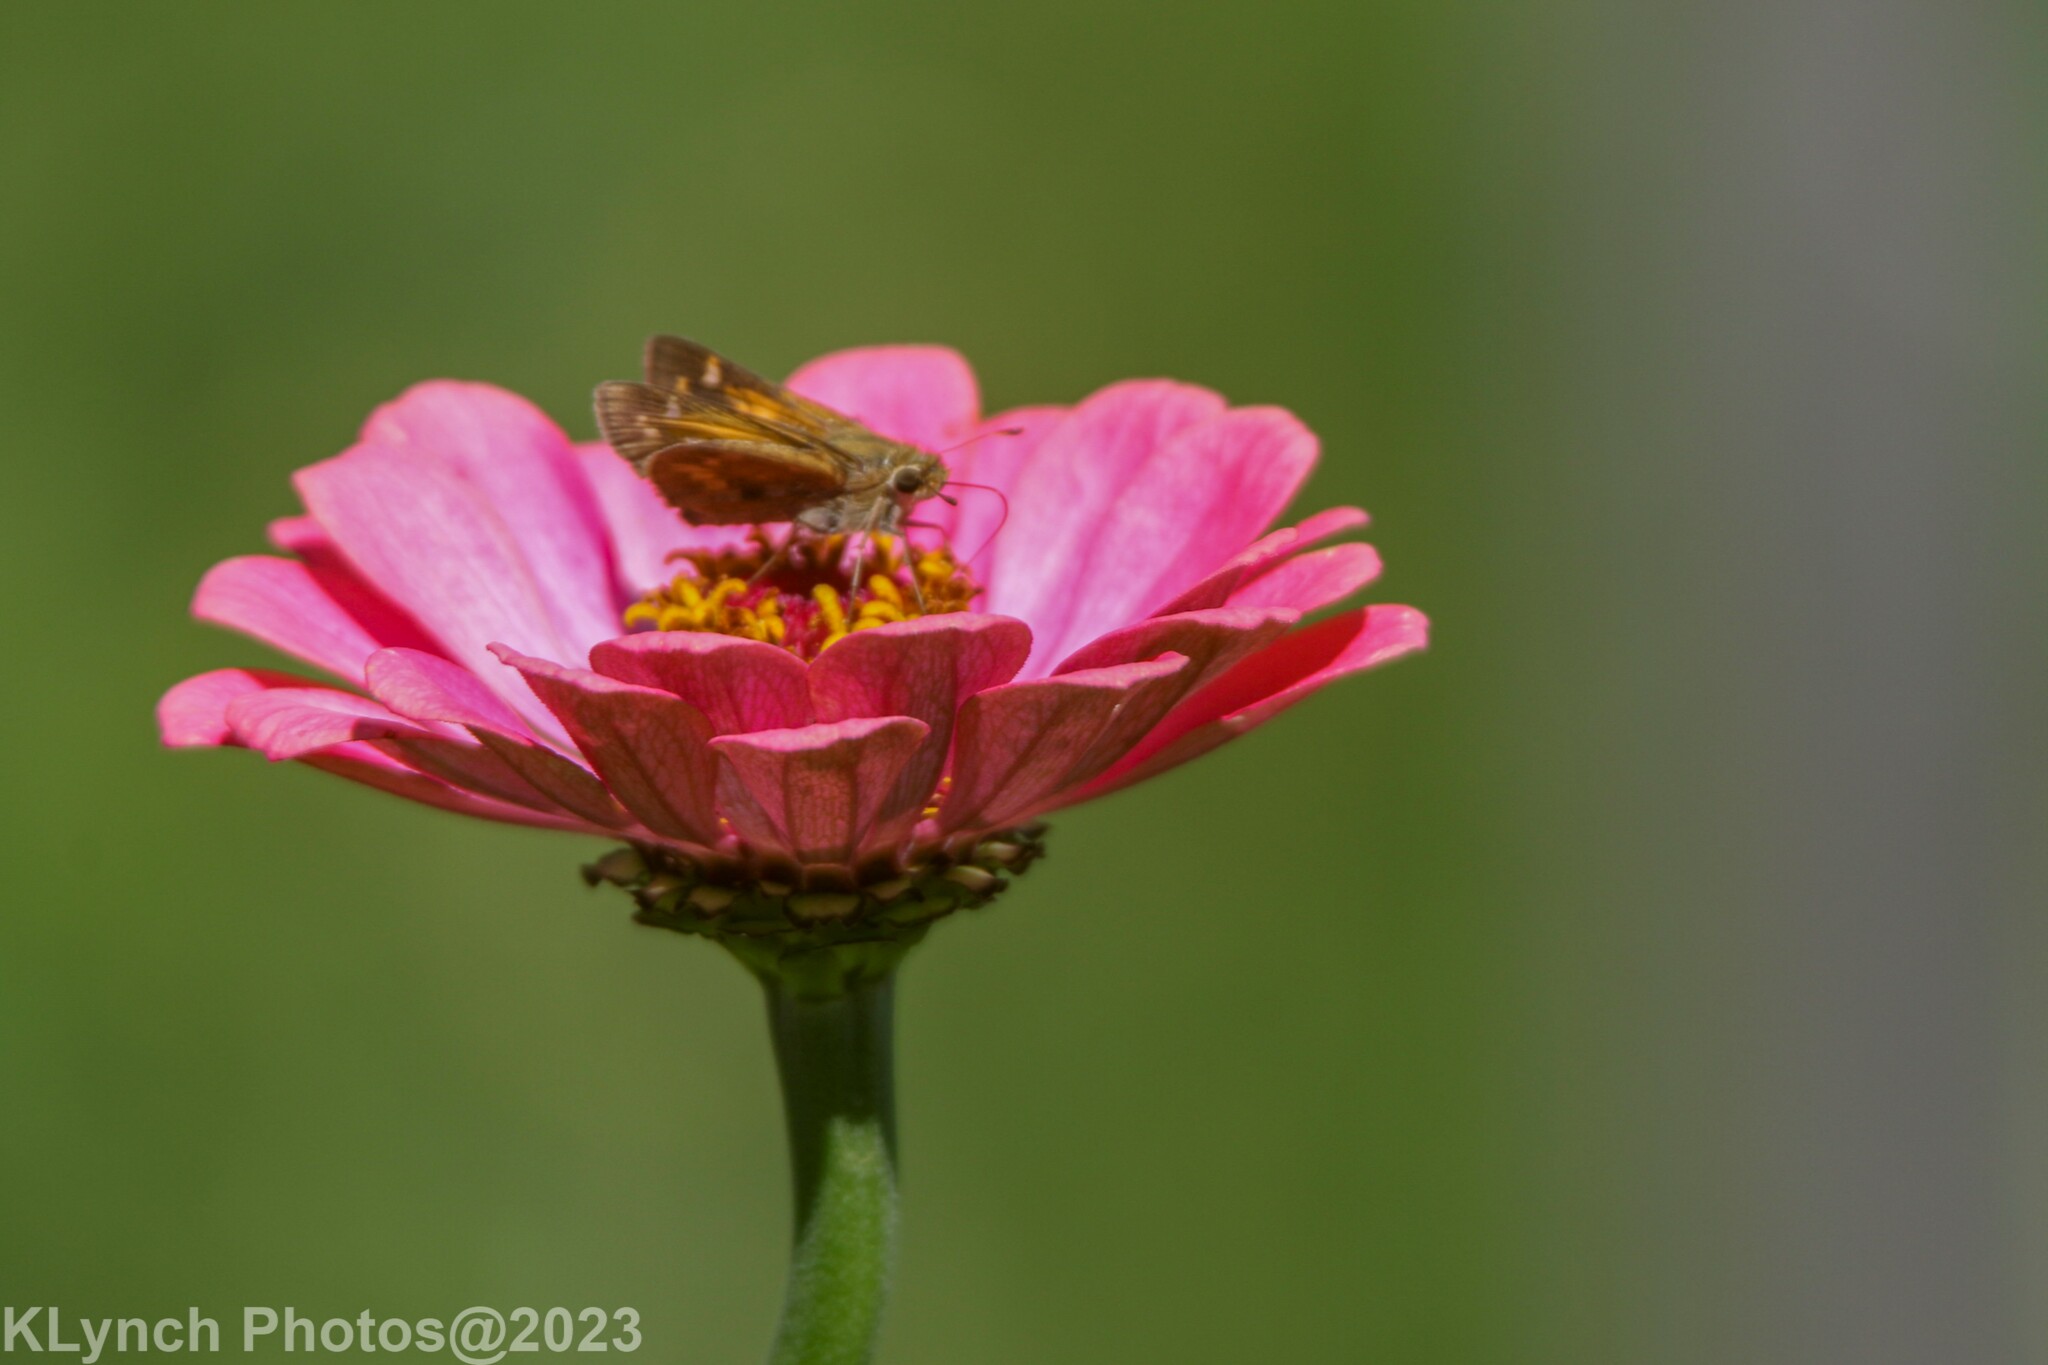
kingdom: Animalia
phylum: Arthropoda
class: Insecta
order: Lepidoptera
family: Hesperiidae
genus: Atalopedes
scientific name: Atalopedes
